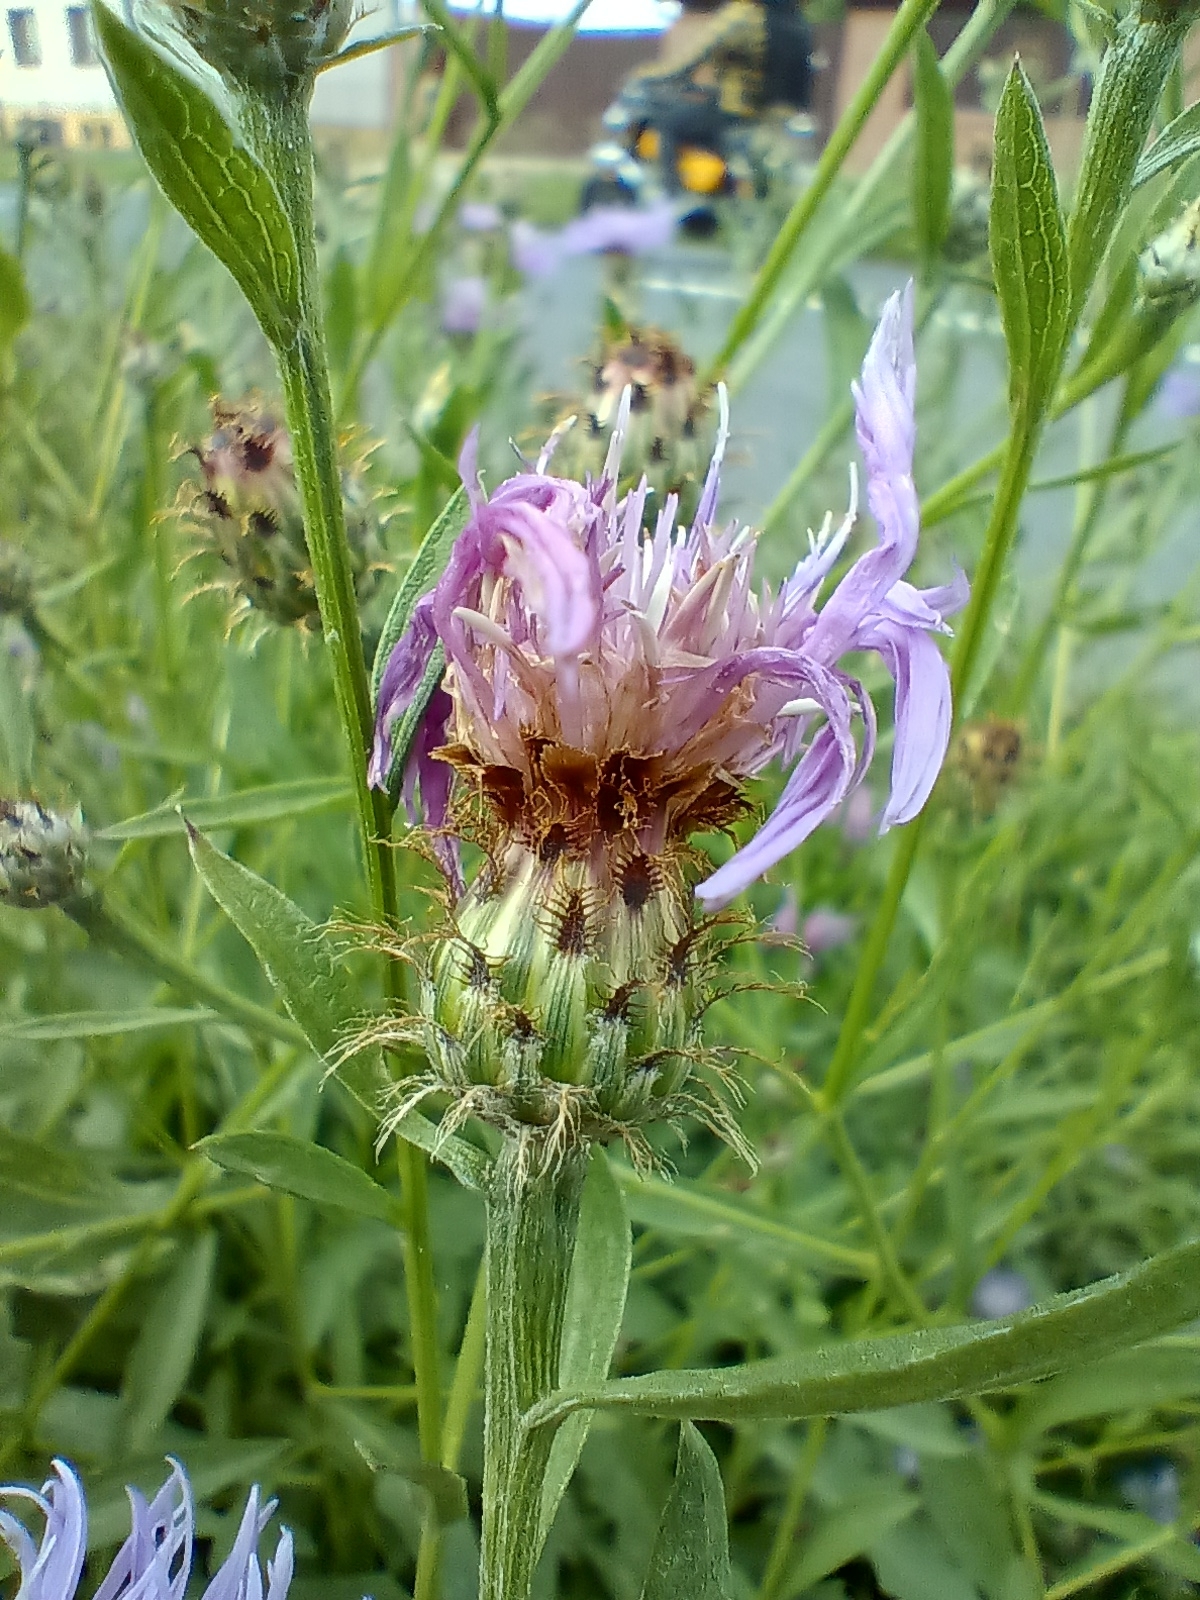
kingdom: Plantae
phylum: Tracheophyta
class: Magnoliopsida
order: Asterales
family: Asteraceae
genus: Centaurea
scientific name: Centaurea oxylepis
